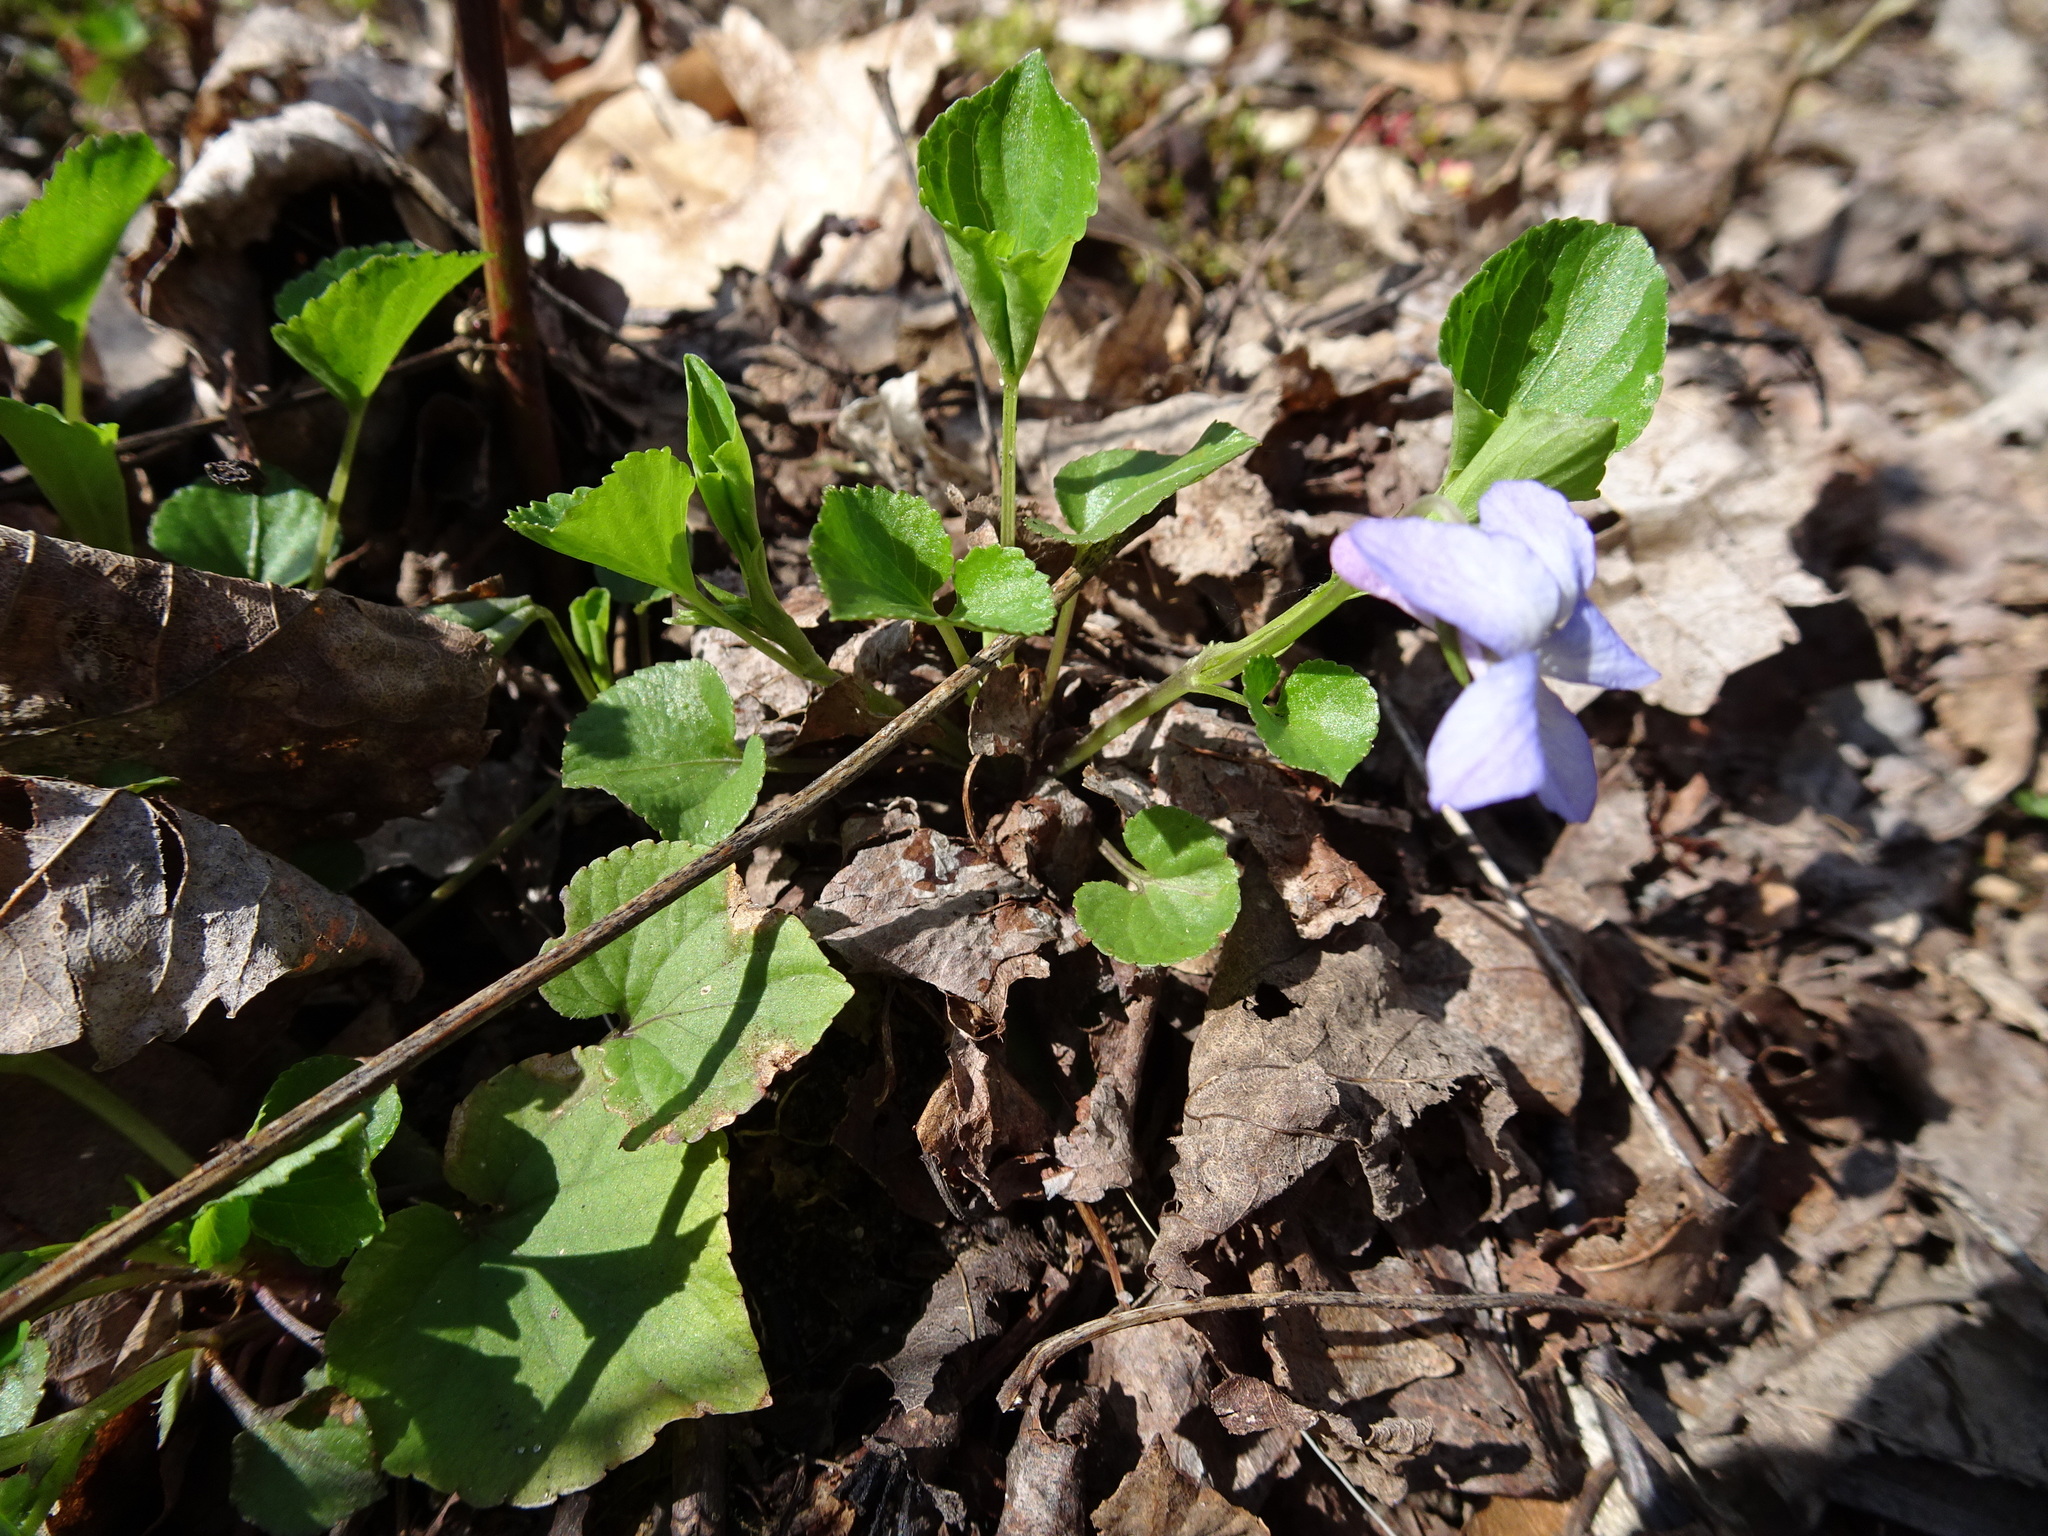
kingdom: Plantae
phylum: Tracheophyta
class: Magnoliopsida
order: Malpighiales
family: Violaceae
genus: Viola
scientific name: Viola labradorica
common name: Labrador violet
